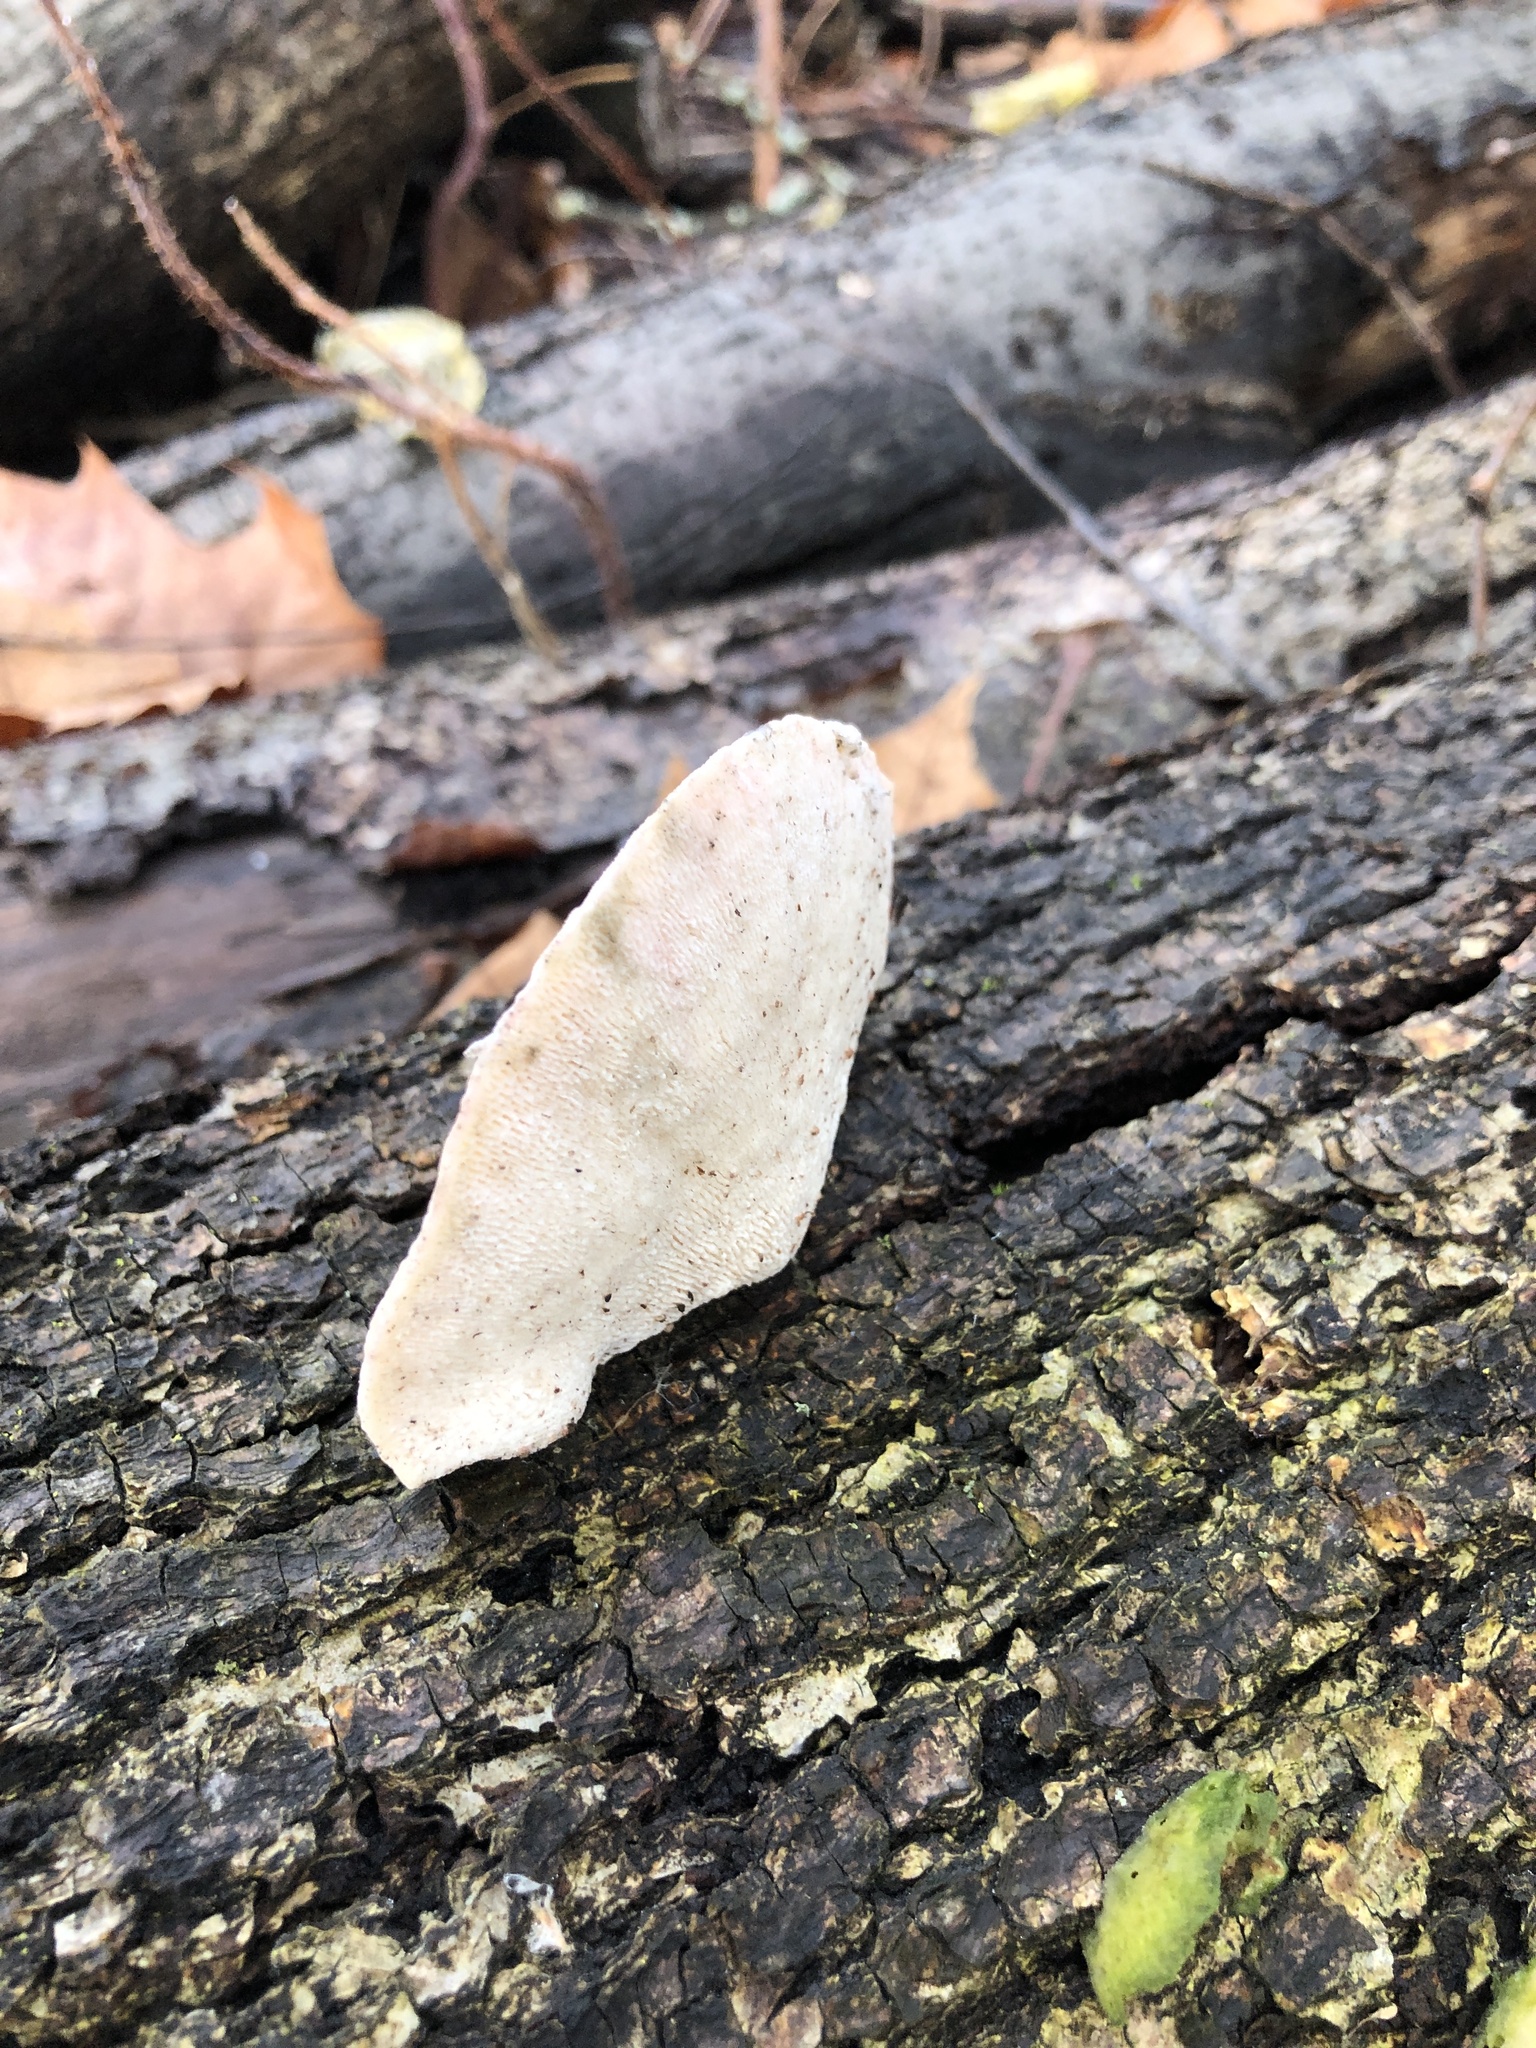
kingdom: Fungi
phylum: Basidiomycota
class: Agaricomycetes
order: Hymenochaetales
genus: Trichaptum
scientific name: Trichaptum biforme
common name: Violet-toothed polypore
